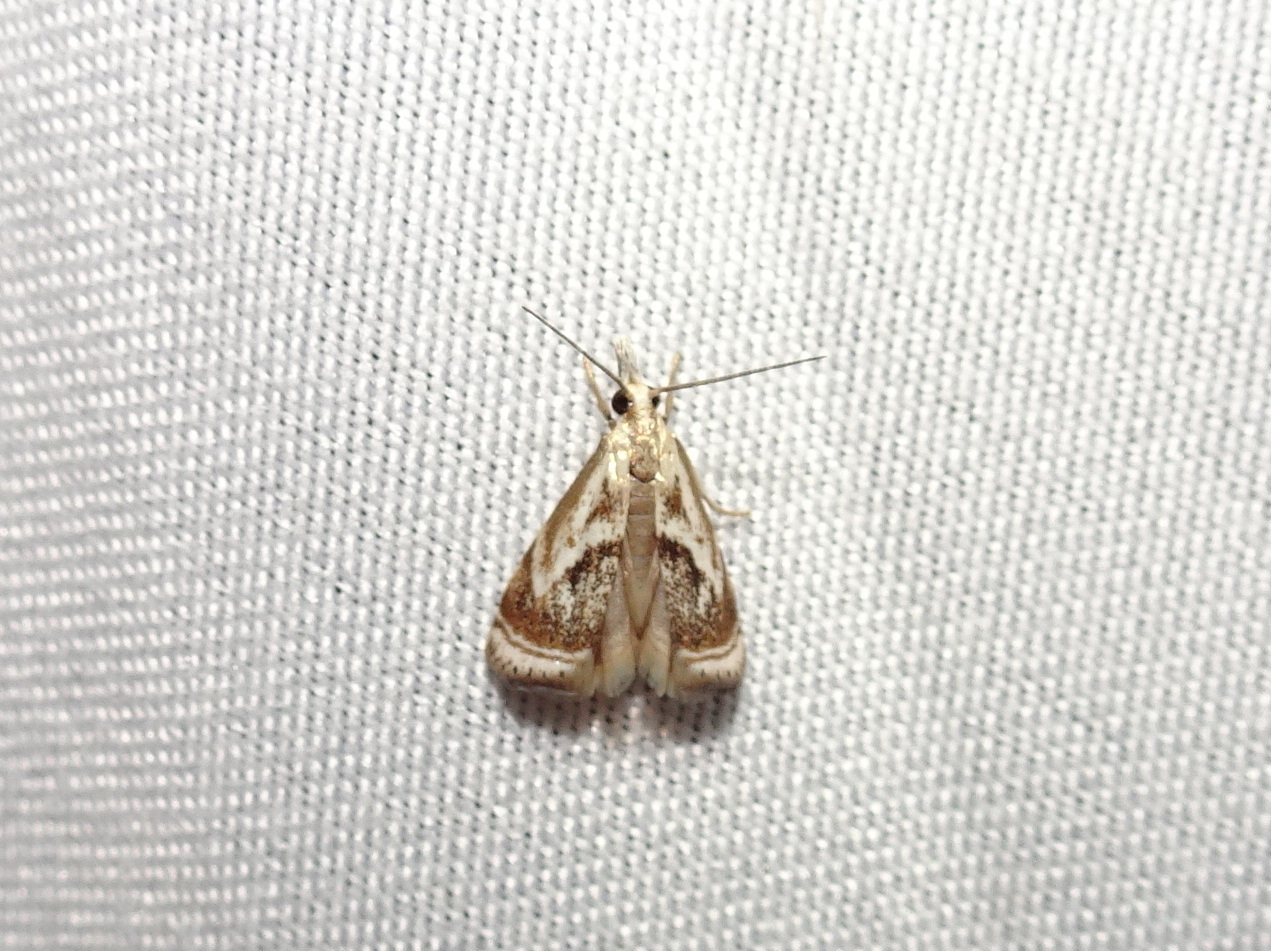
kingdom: Animalia
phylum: Arthropoda
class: Insecta
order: Lepidoptera
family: Crambidae
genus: Microcrambus
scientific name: Microcrambus elegans
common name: Elegant grass-veneer
